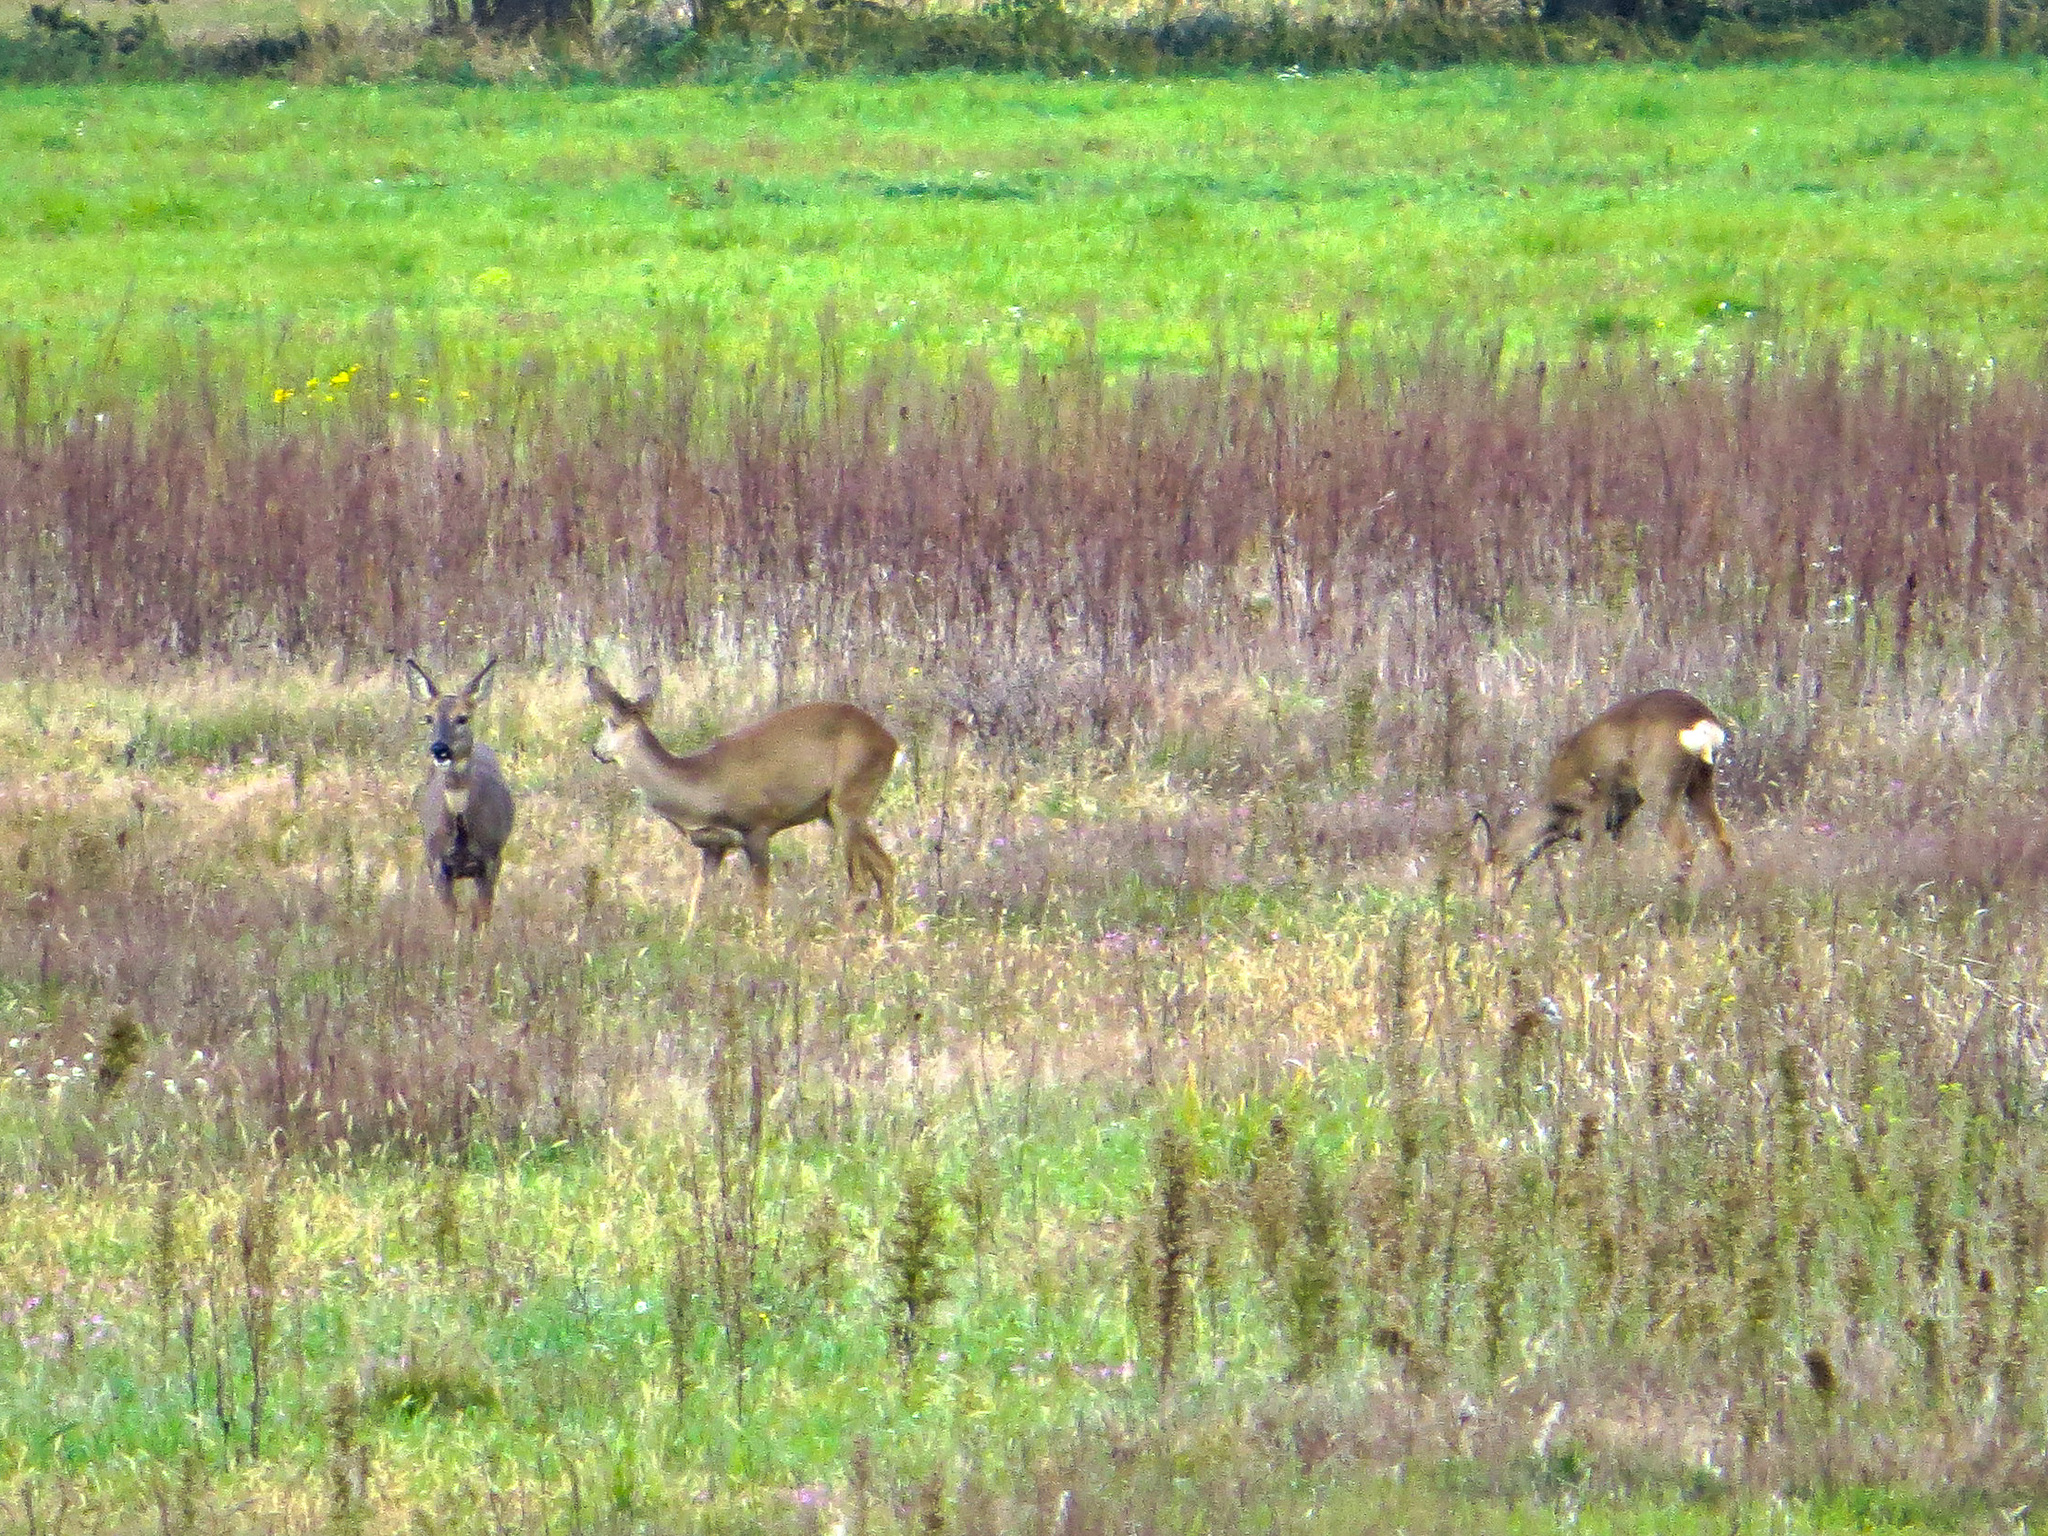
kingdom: Animalia
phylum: Chordata
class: Mammalia
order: Artiodactyla
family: Cervidae
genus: Capreolus
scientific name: Capreolus capreolus
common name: Western roe deer
